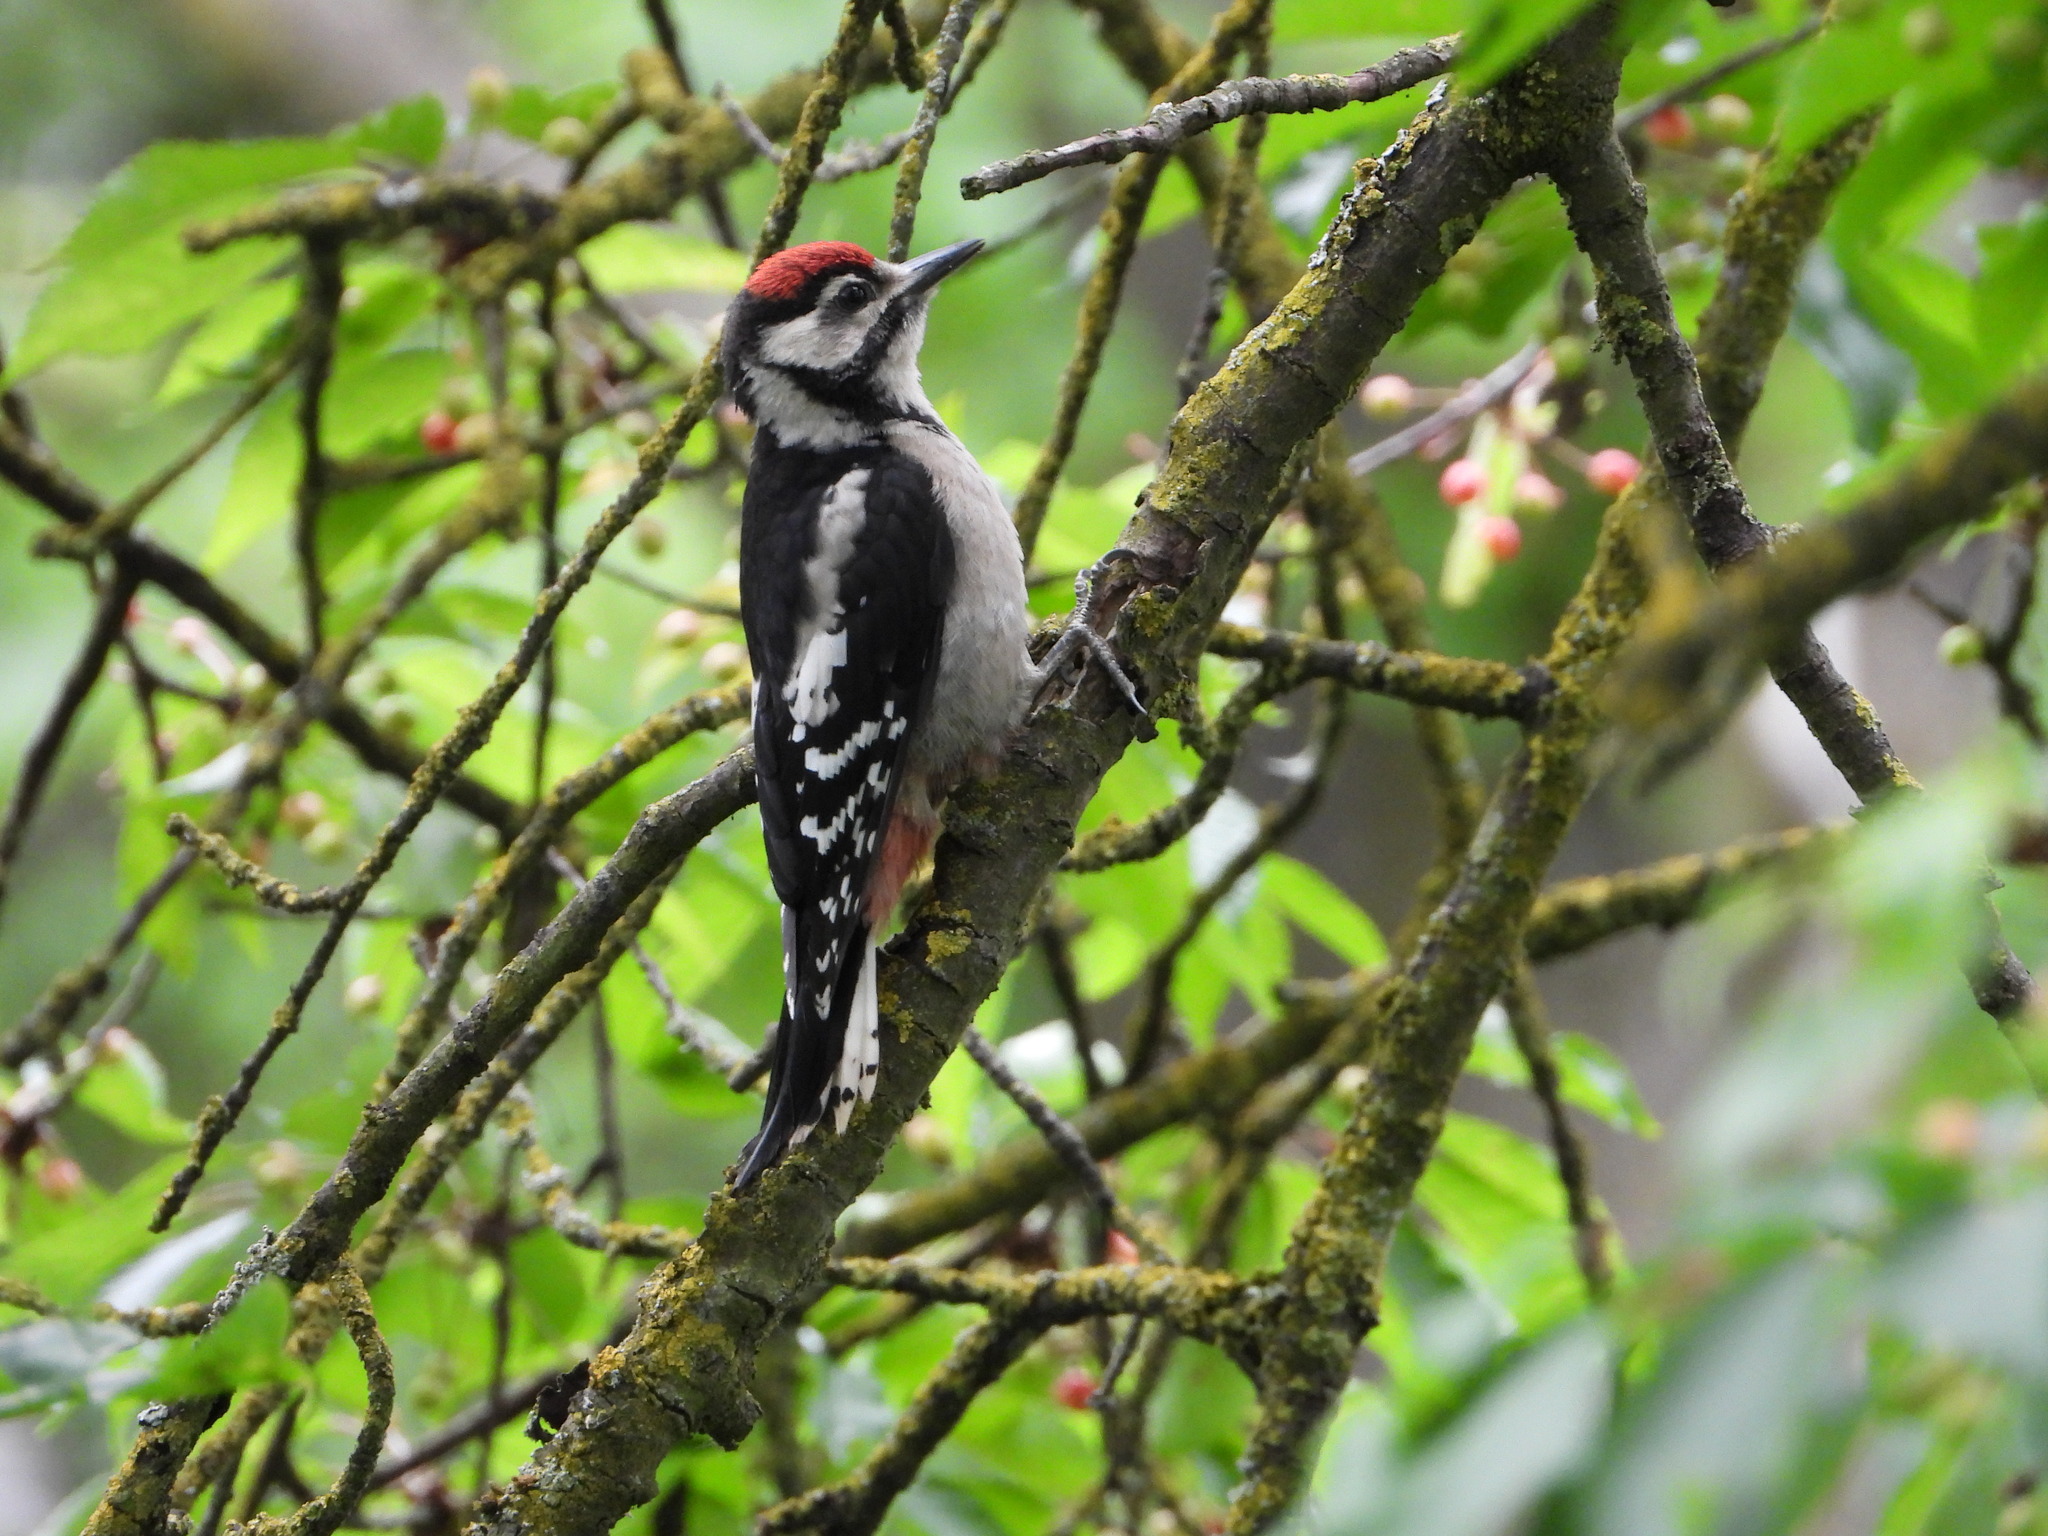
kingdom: Animalia
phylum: Chordata
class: Aves
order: Piciformes
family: Picidae
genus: Dendrocopos
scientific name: Dendrocopos major
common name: Great spotted woodpecker
